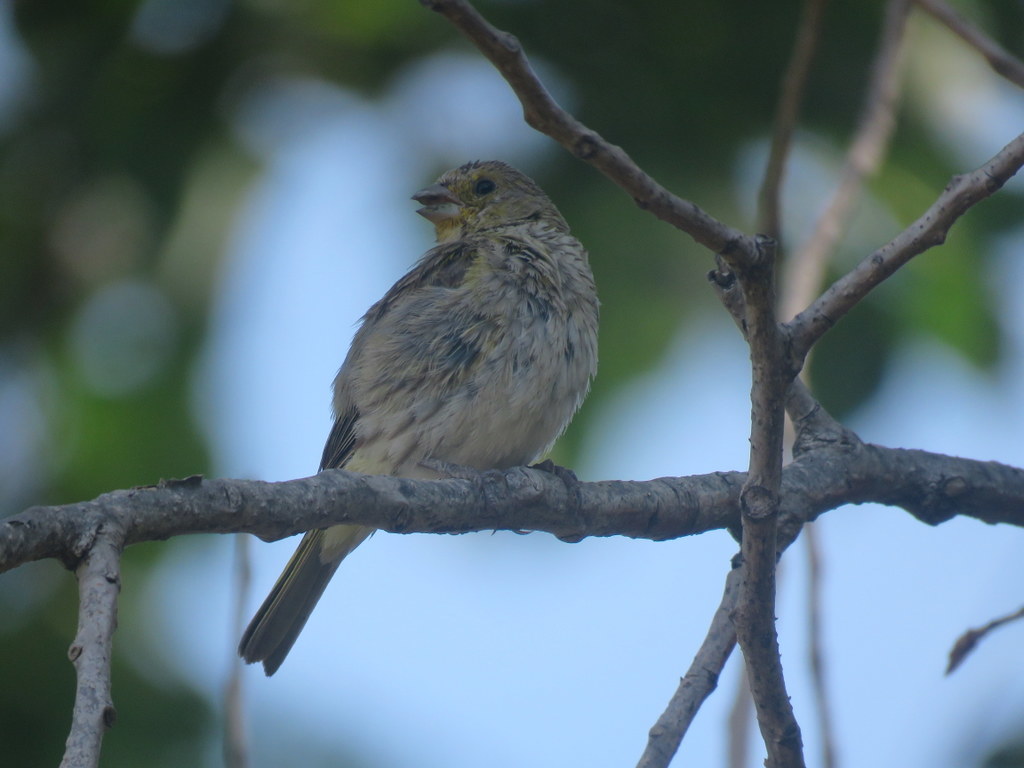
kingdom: Animalia
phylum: Chordata
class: Aves
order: Passeriformes
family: Thraupidae
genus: Sicalis
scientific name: Sicalis flaveola
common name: Saffron finch
